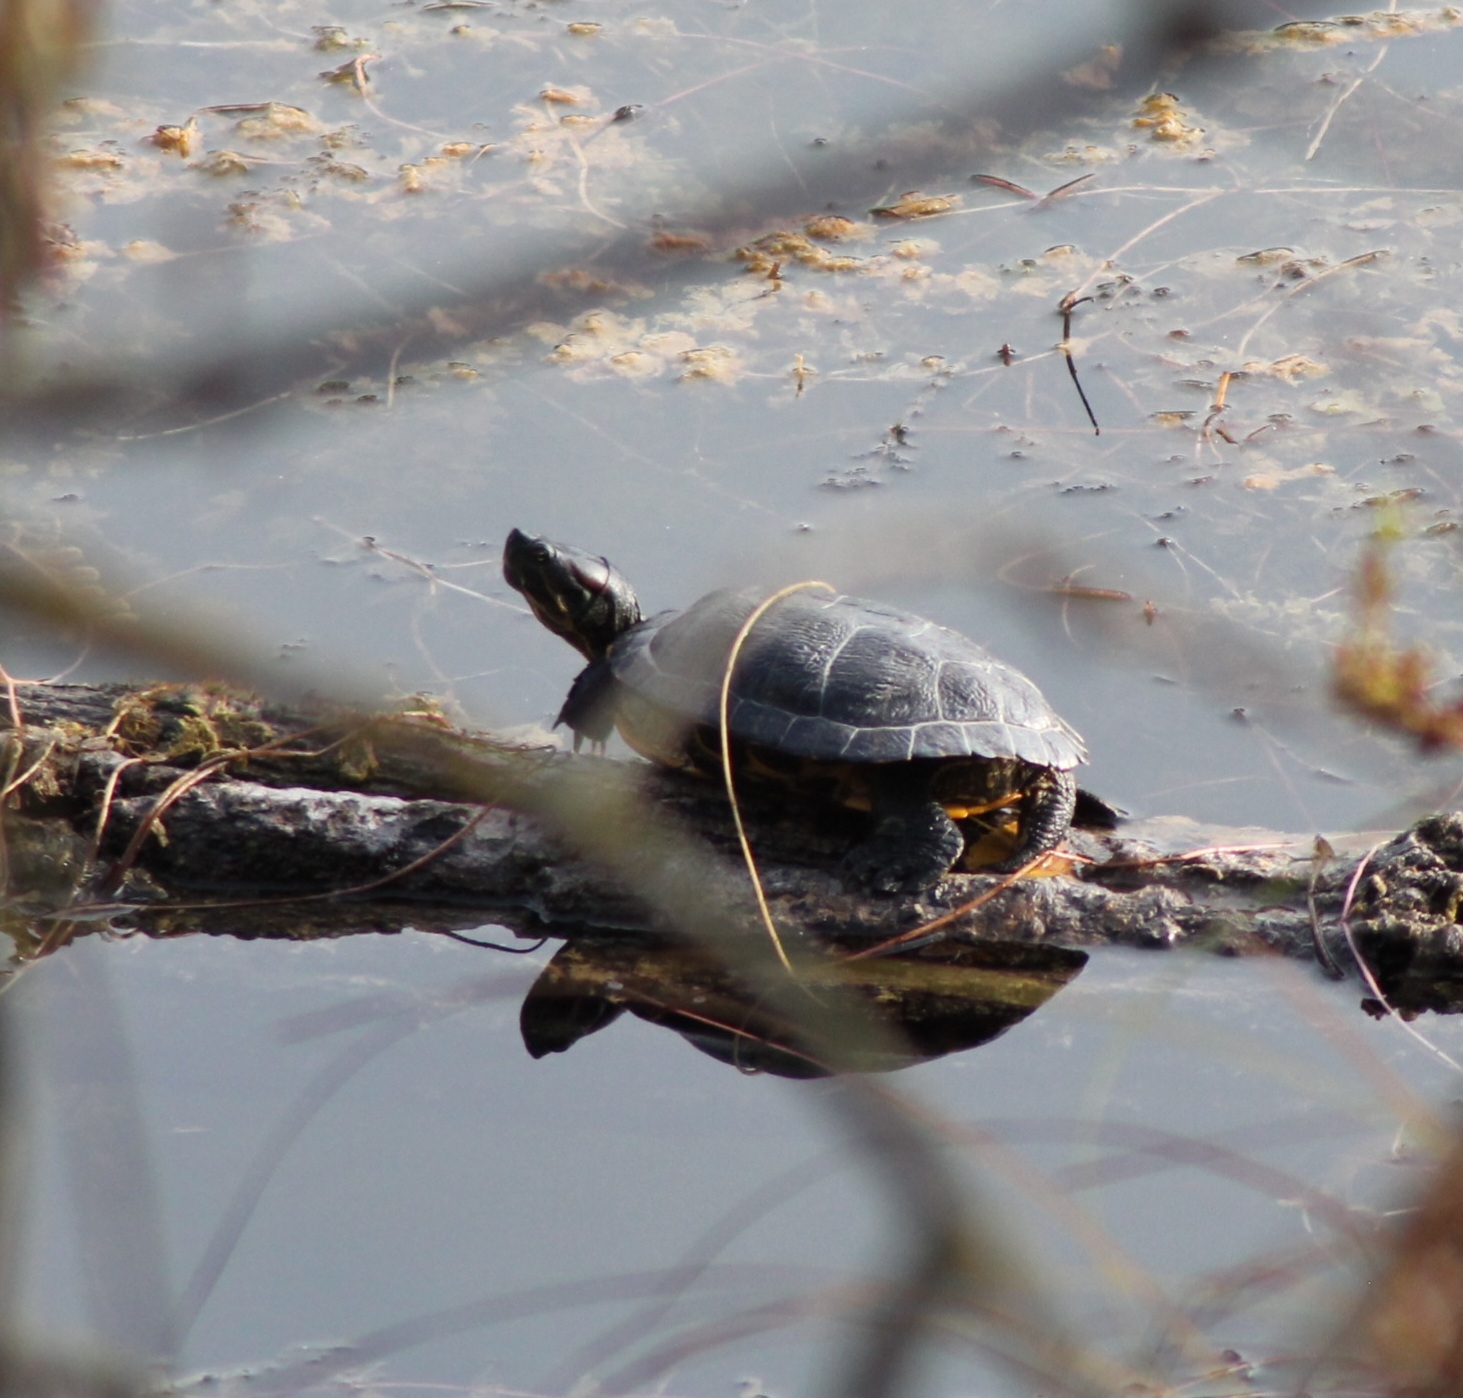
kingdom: Animalia
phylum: Chordata
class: Testudines
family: Emydidae
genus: Trachemys
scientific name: Trachemys scripta
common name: Slider
